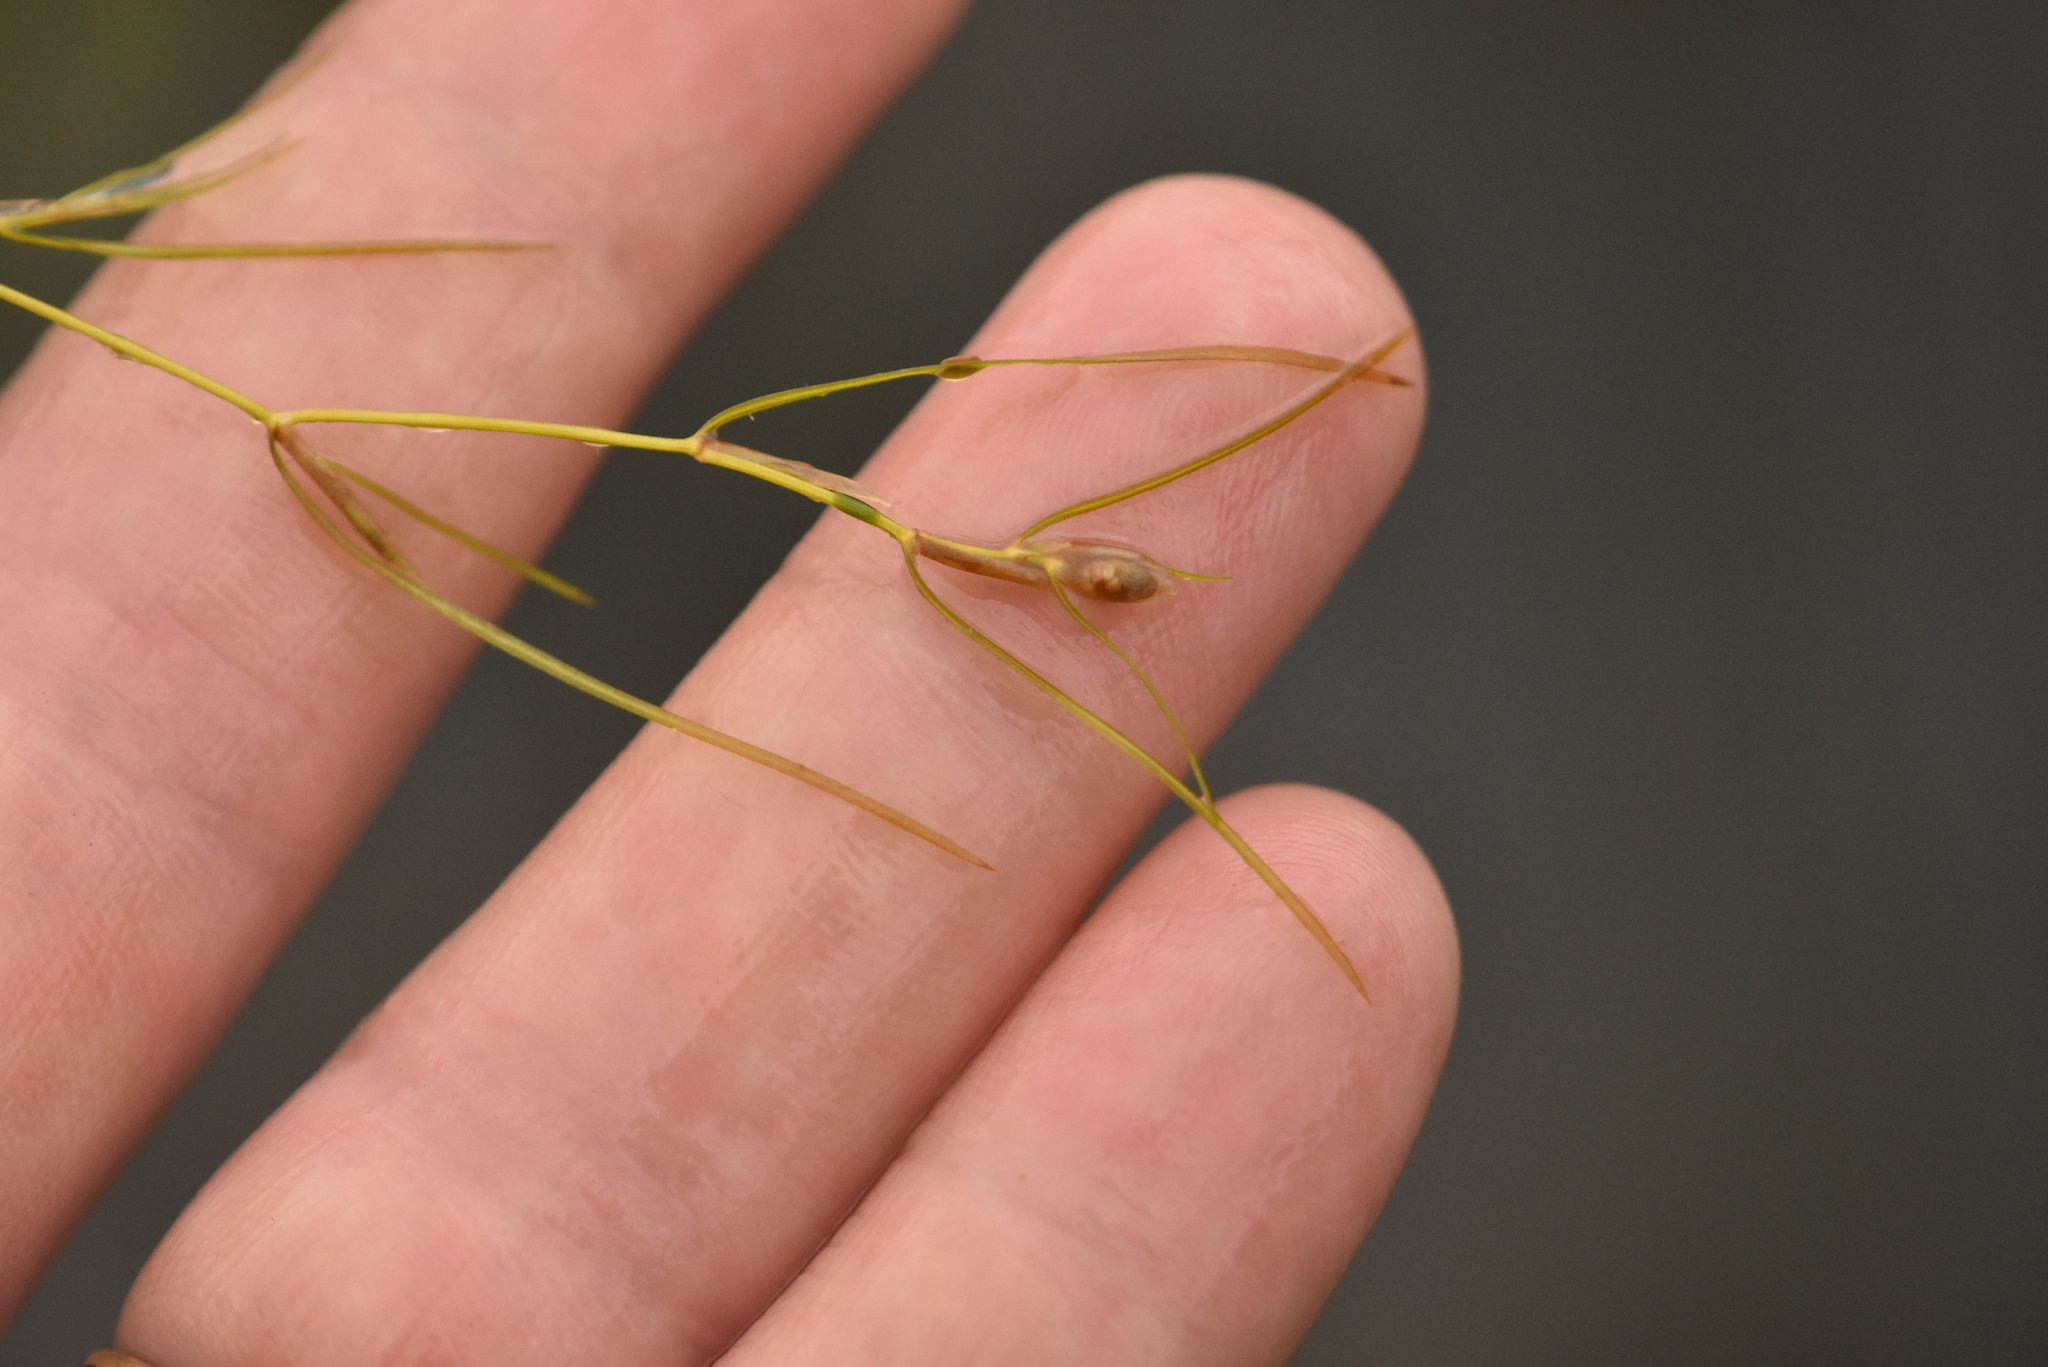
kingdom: Plantae
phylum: Tracheophyta
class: Liliopsida
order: Alismatales
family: Potamogetonaceae
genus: Potamogeton
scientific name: Potamogeton trichoides
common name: Hairlike pondweed
